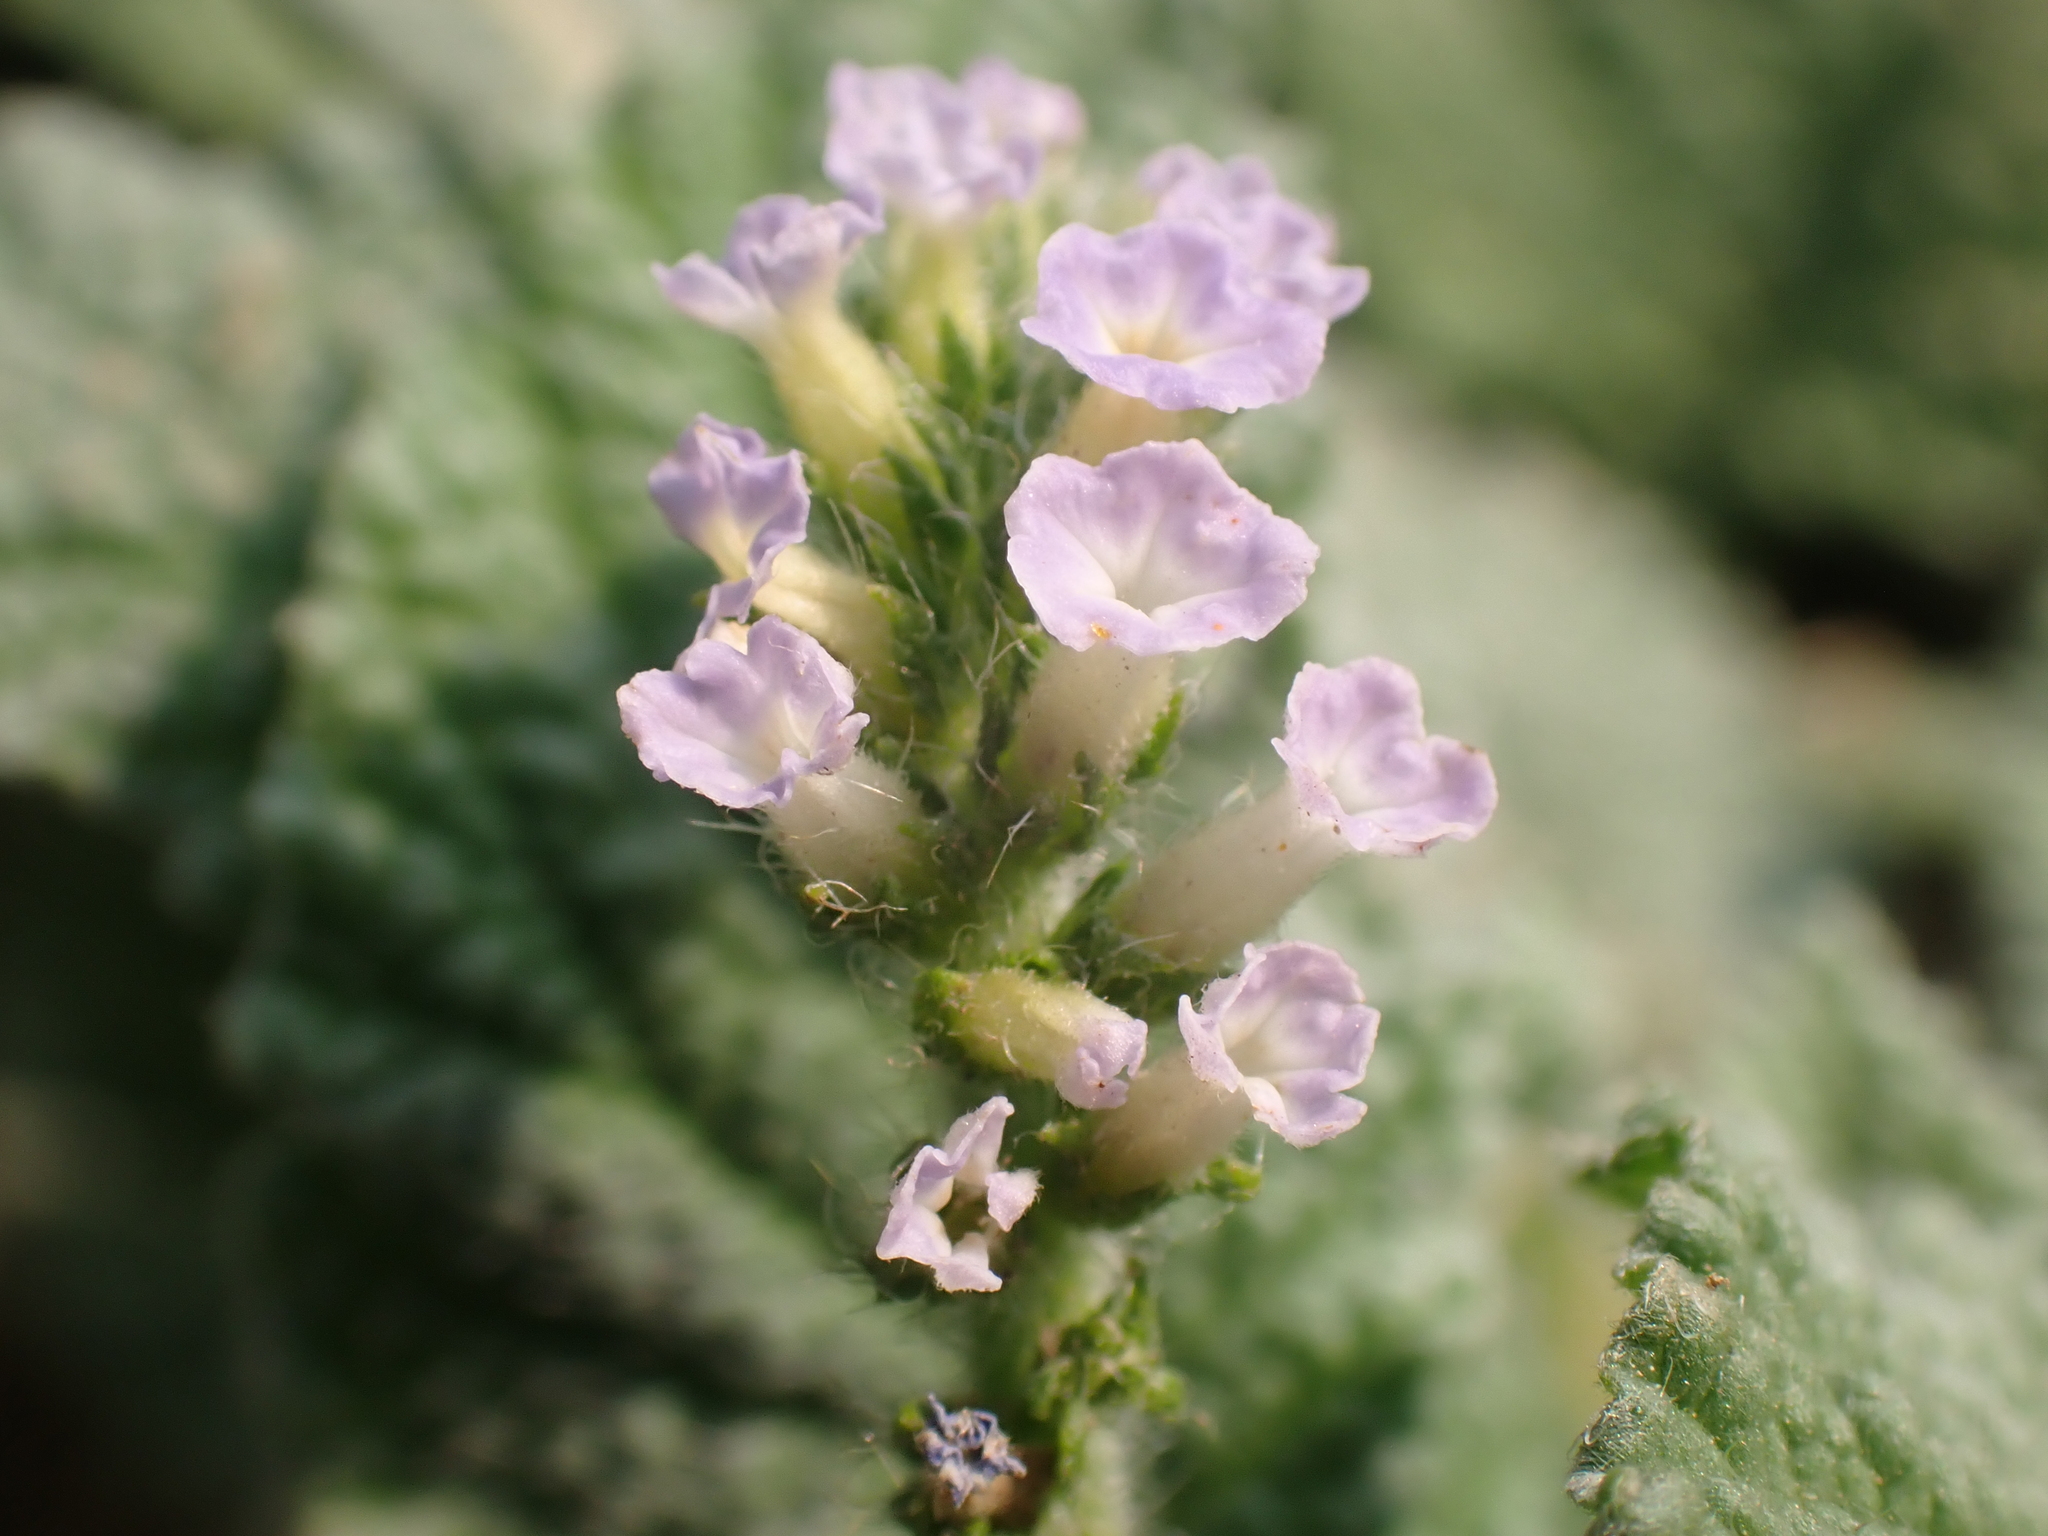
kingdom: Plantae
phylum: Tracheophyta
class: Magnoliopsida
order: Boraginales
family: Heliotropiaceae
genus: Heliotropium
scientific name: Heliotropium indicum
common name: Indian heliotrope
